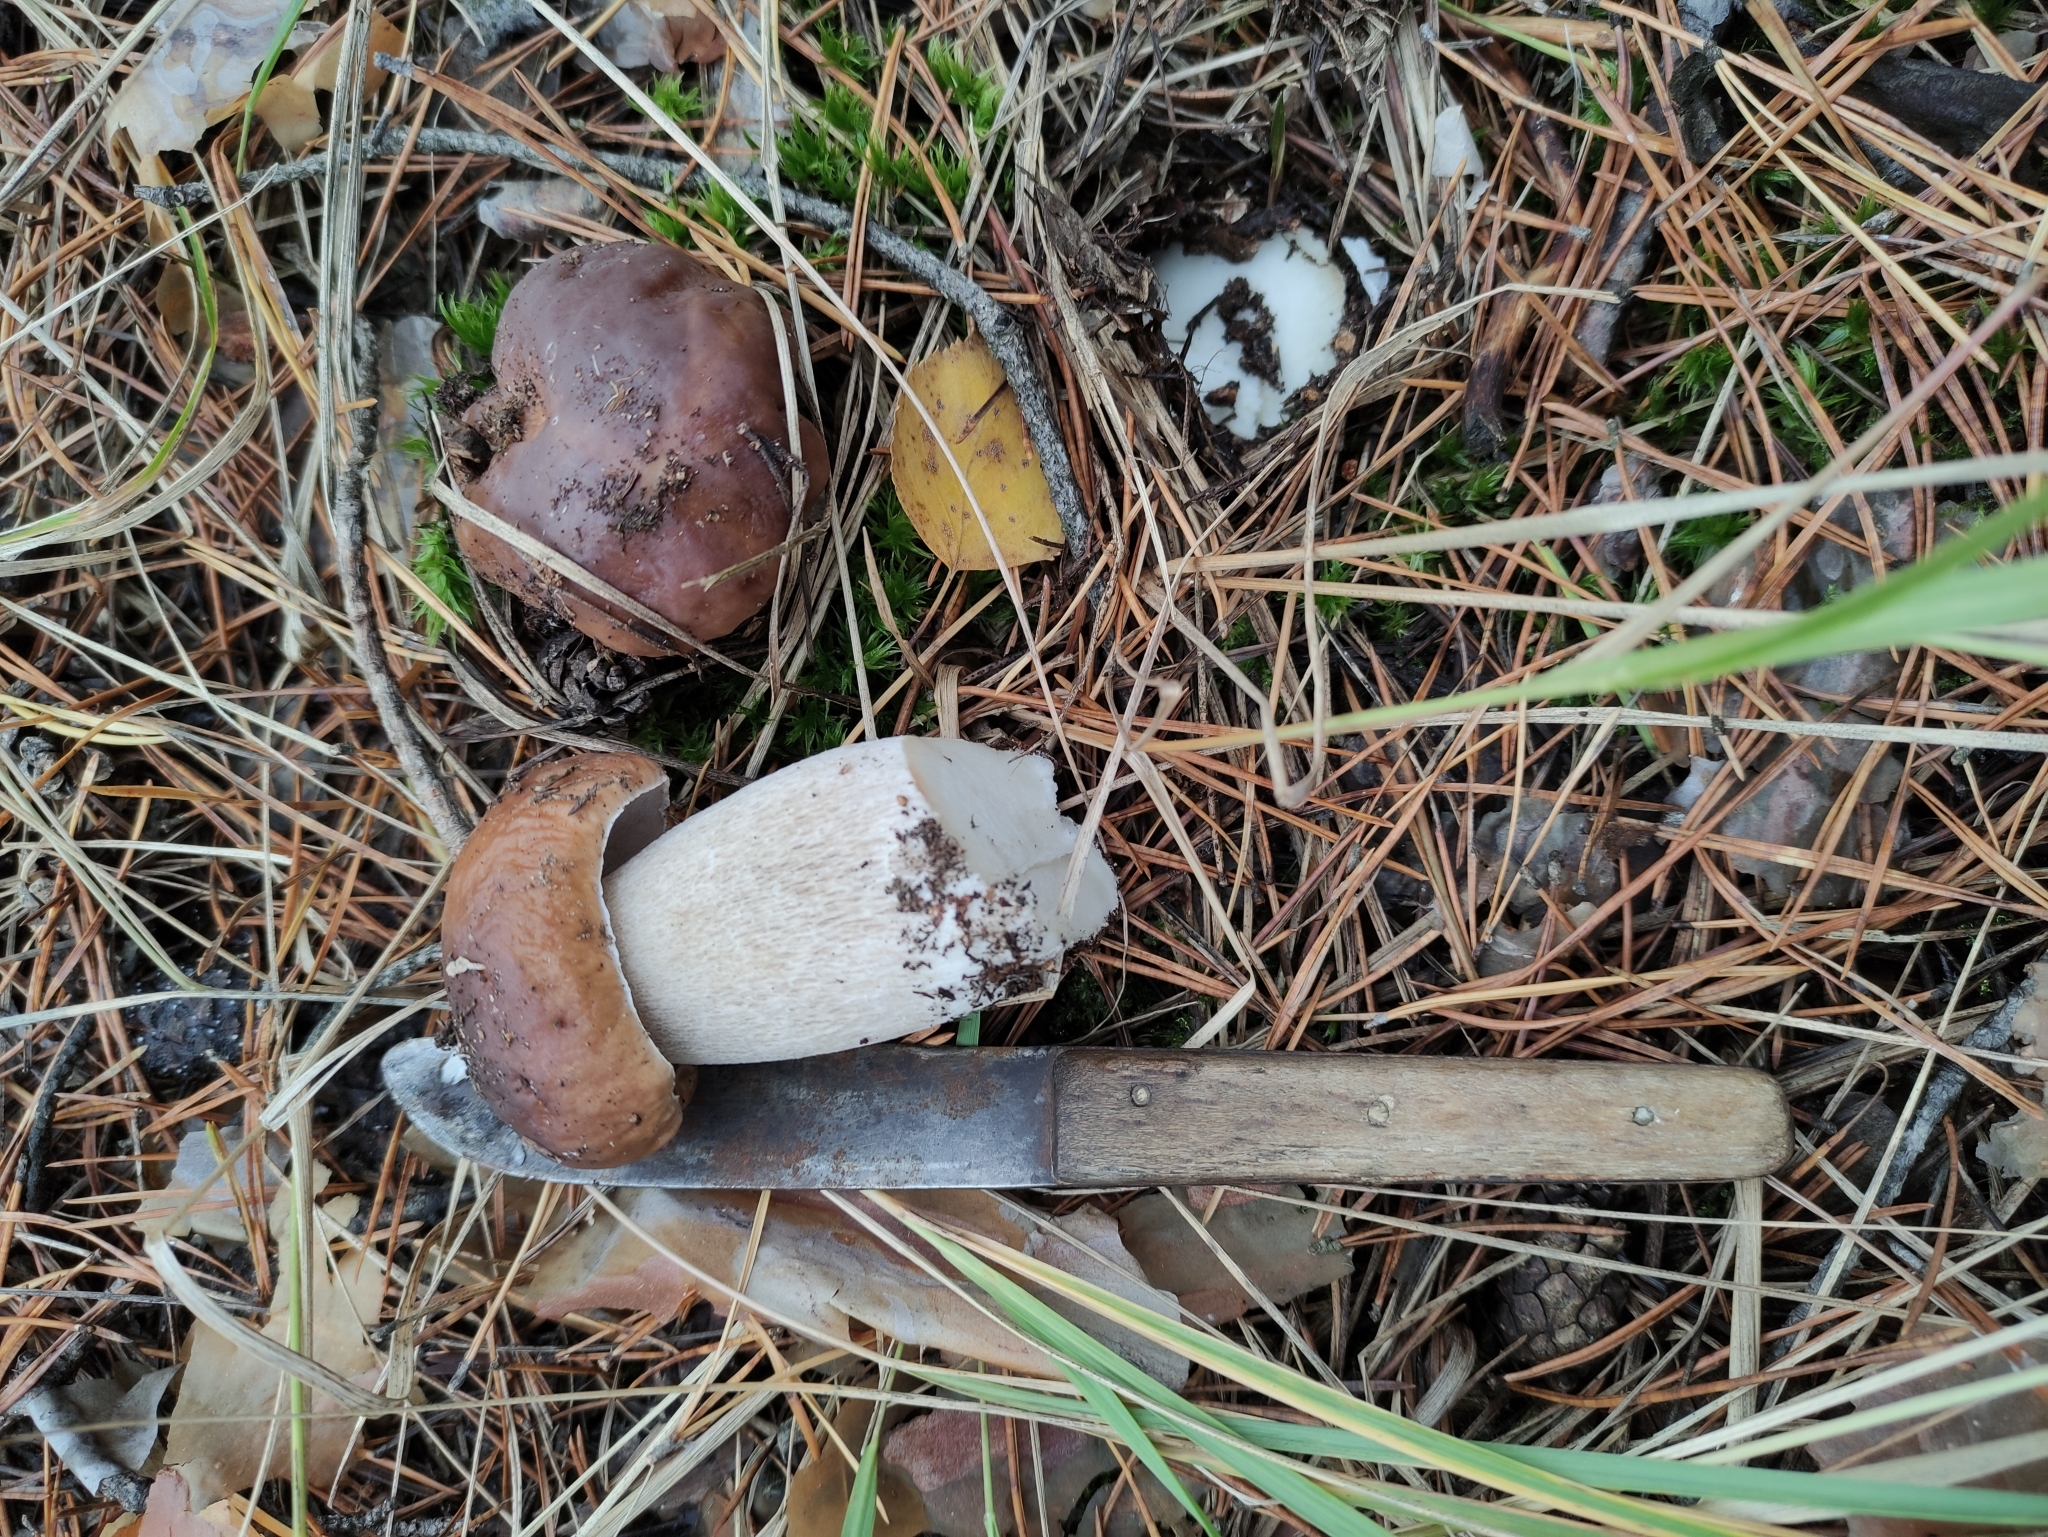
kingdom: Fungi
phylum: Basidiomycota
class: Agaricomycetes
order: Boletales
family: Boletaceae
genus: Boletus
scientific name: Boletus edulis
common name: Cep
